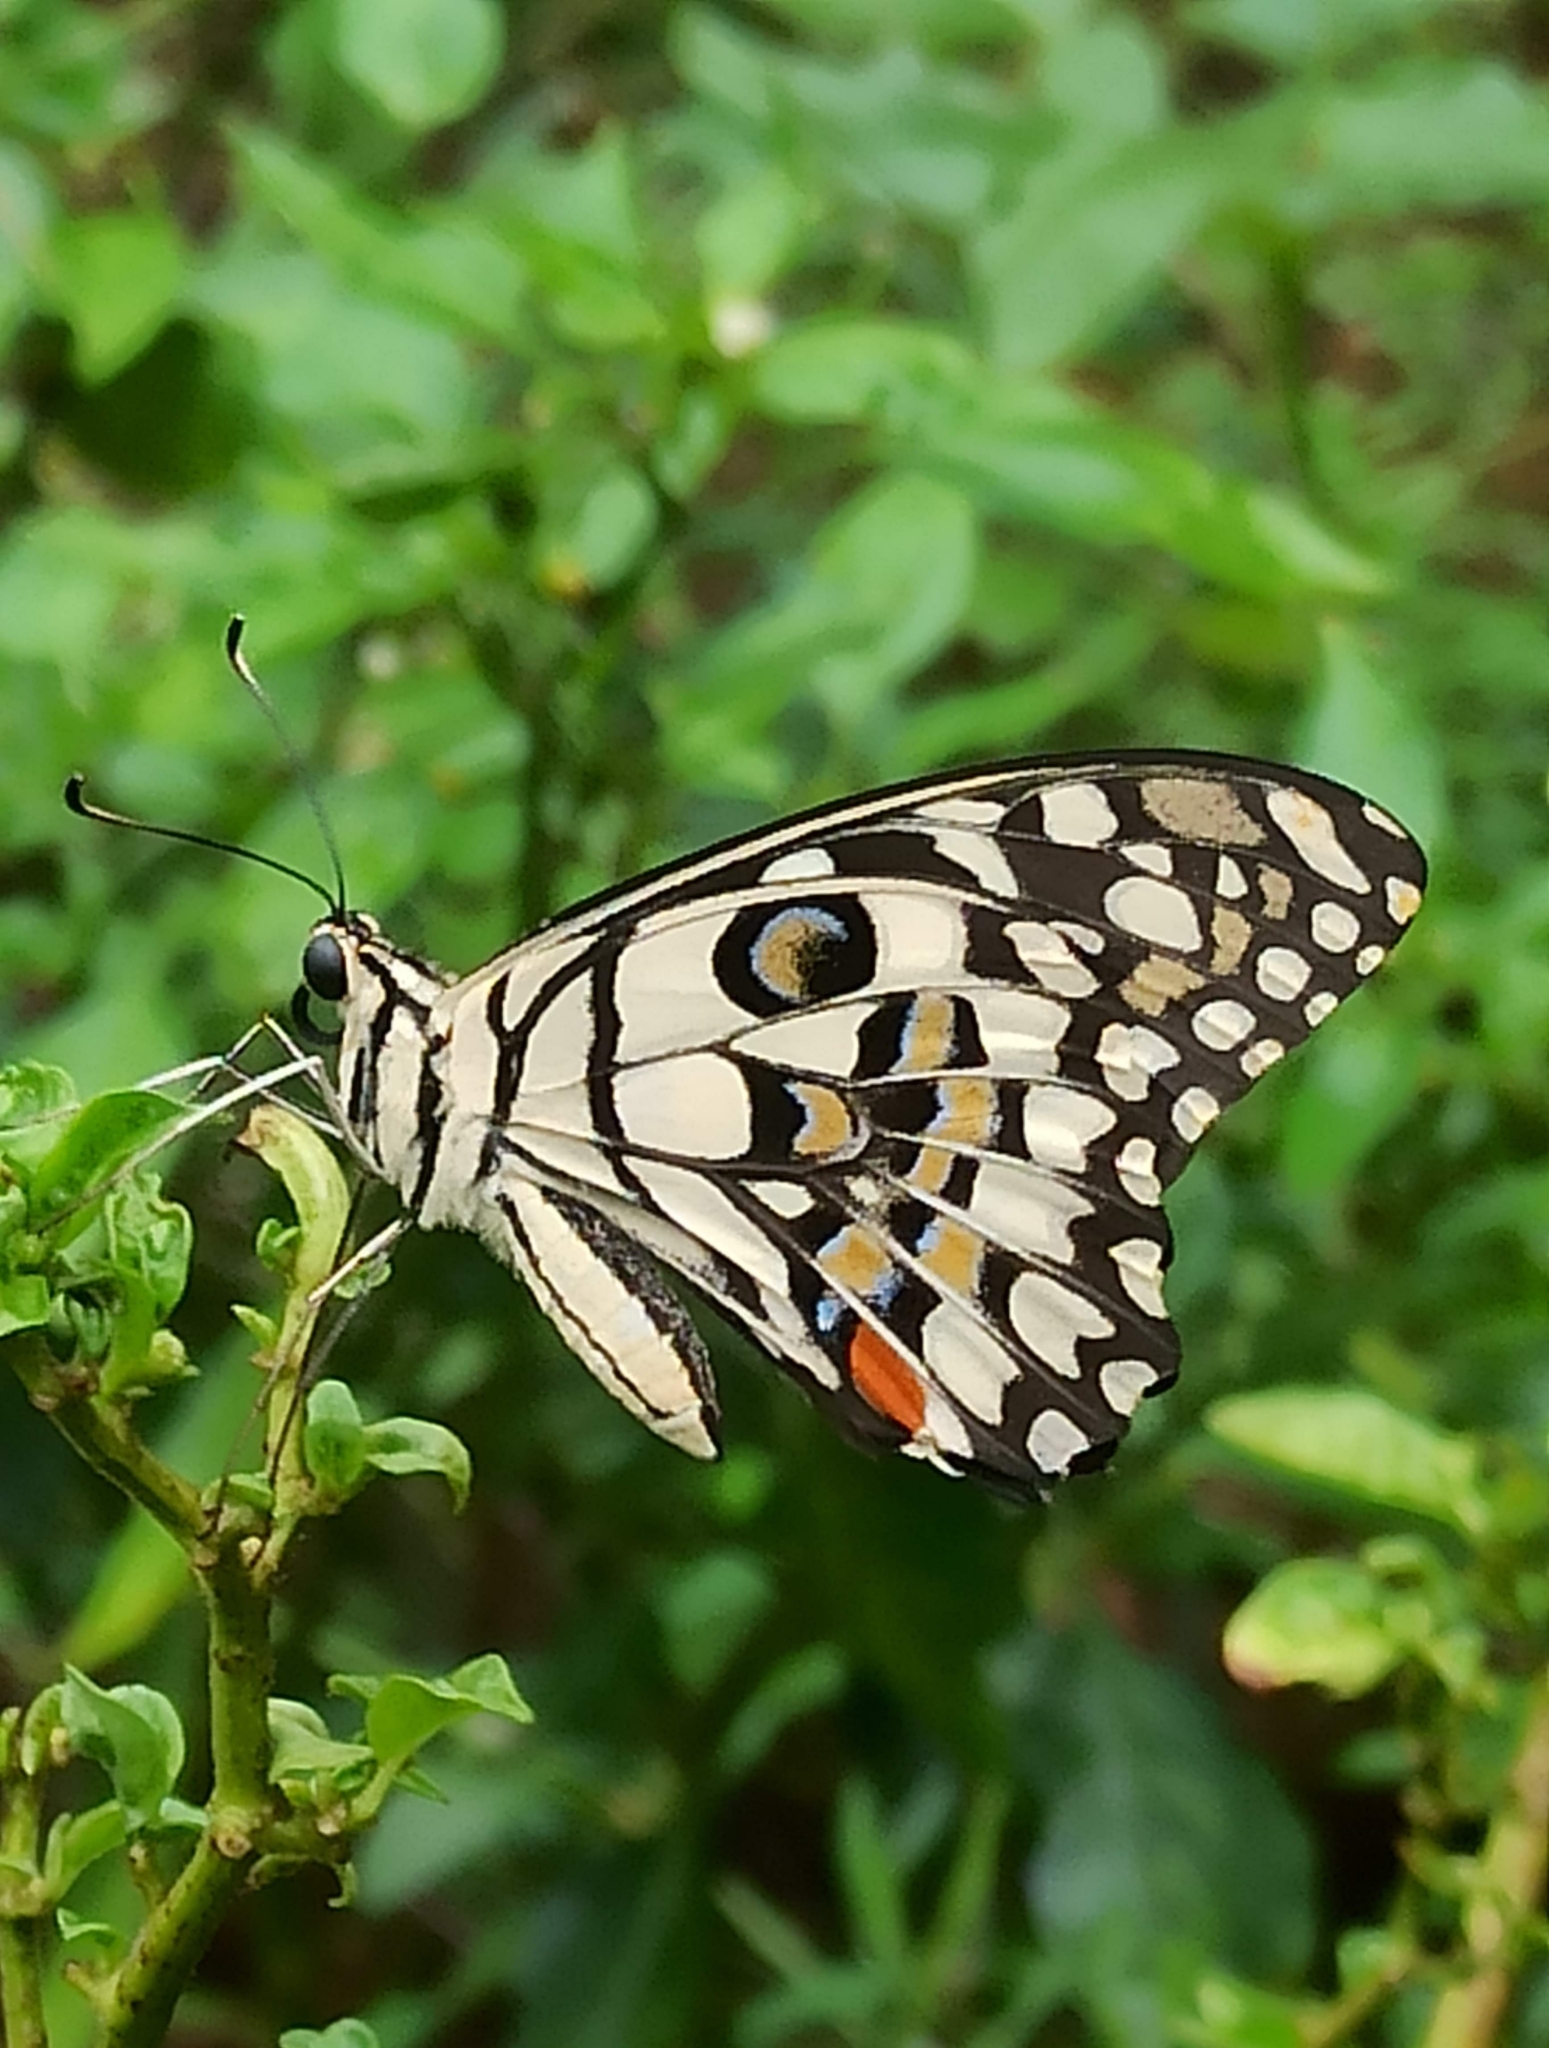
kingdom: Animalia
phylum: Arthropoda
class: Insecta
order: Lepidoptera
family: Papilionidae
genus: Papilio
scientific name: Papilio demoleus
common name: Lime butterfly
